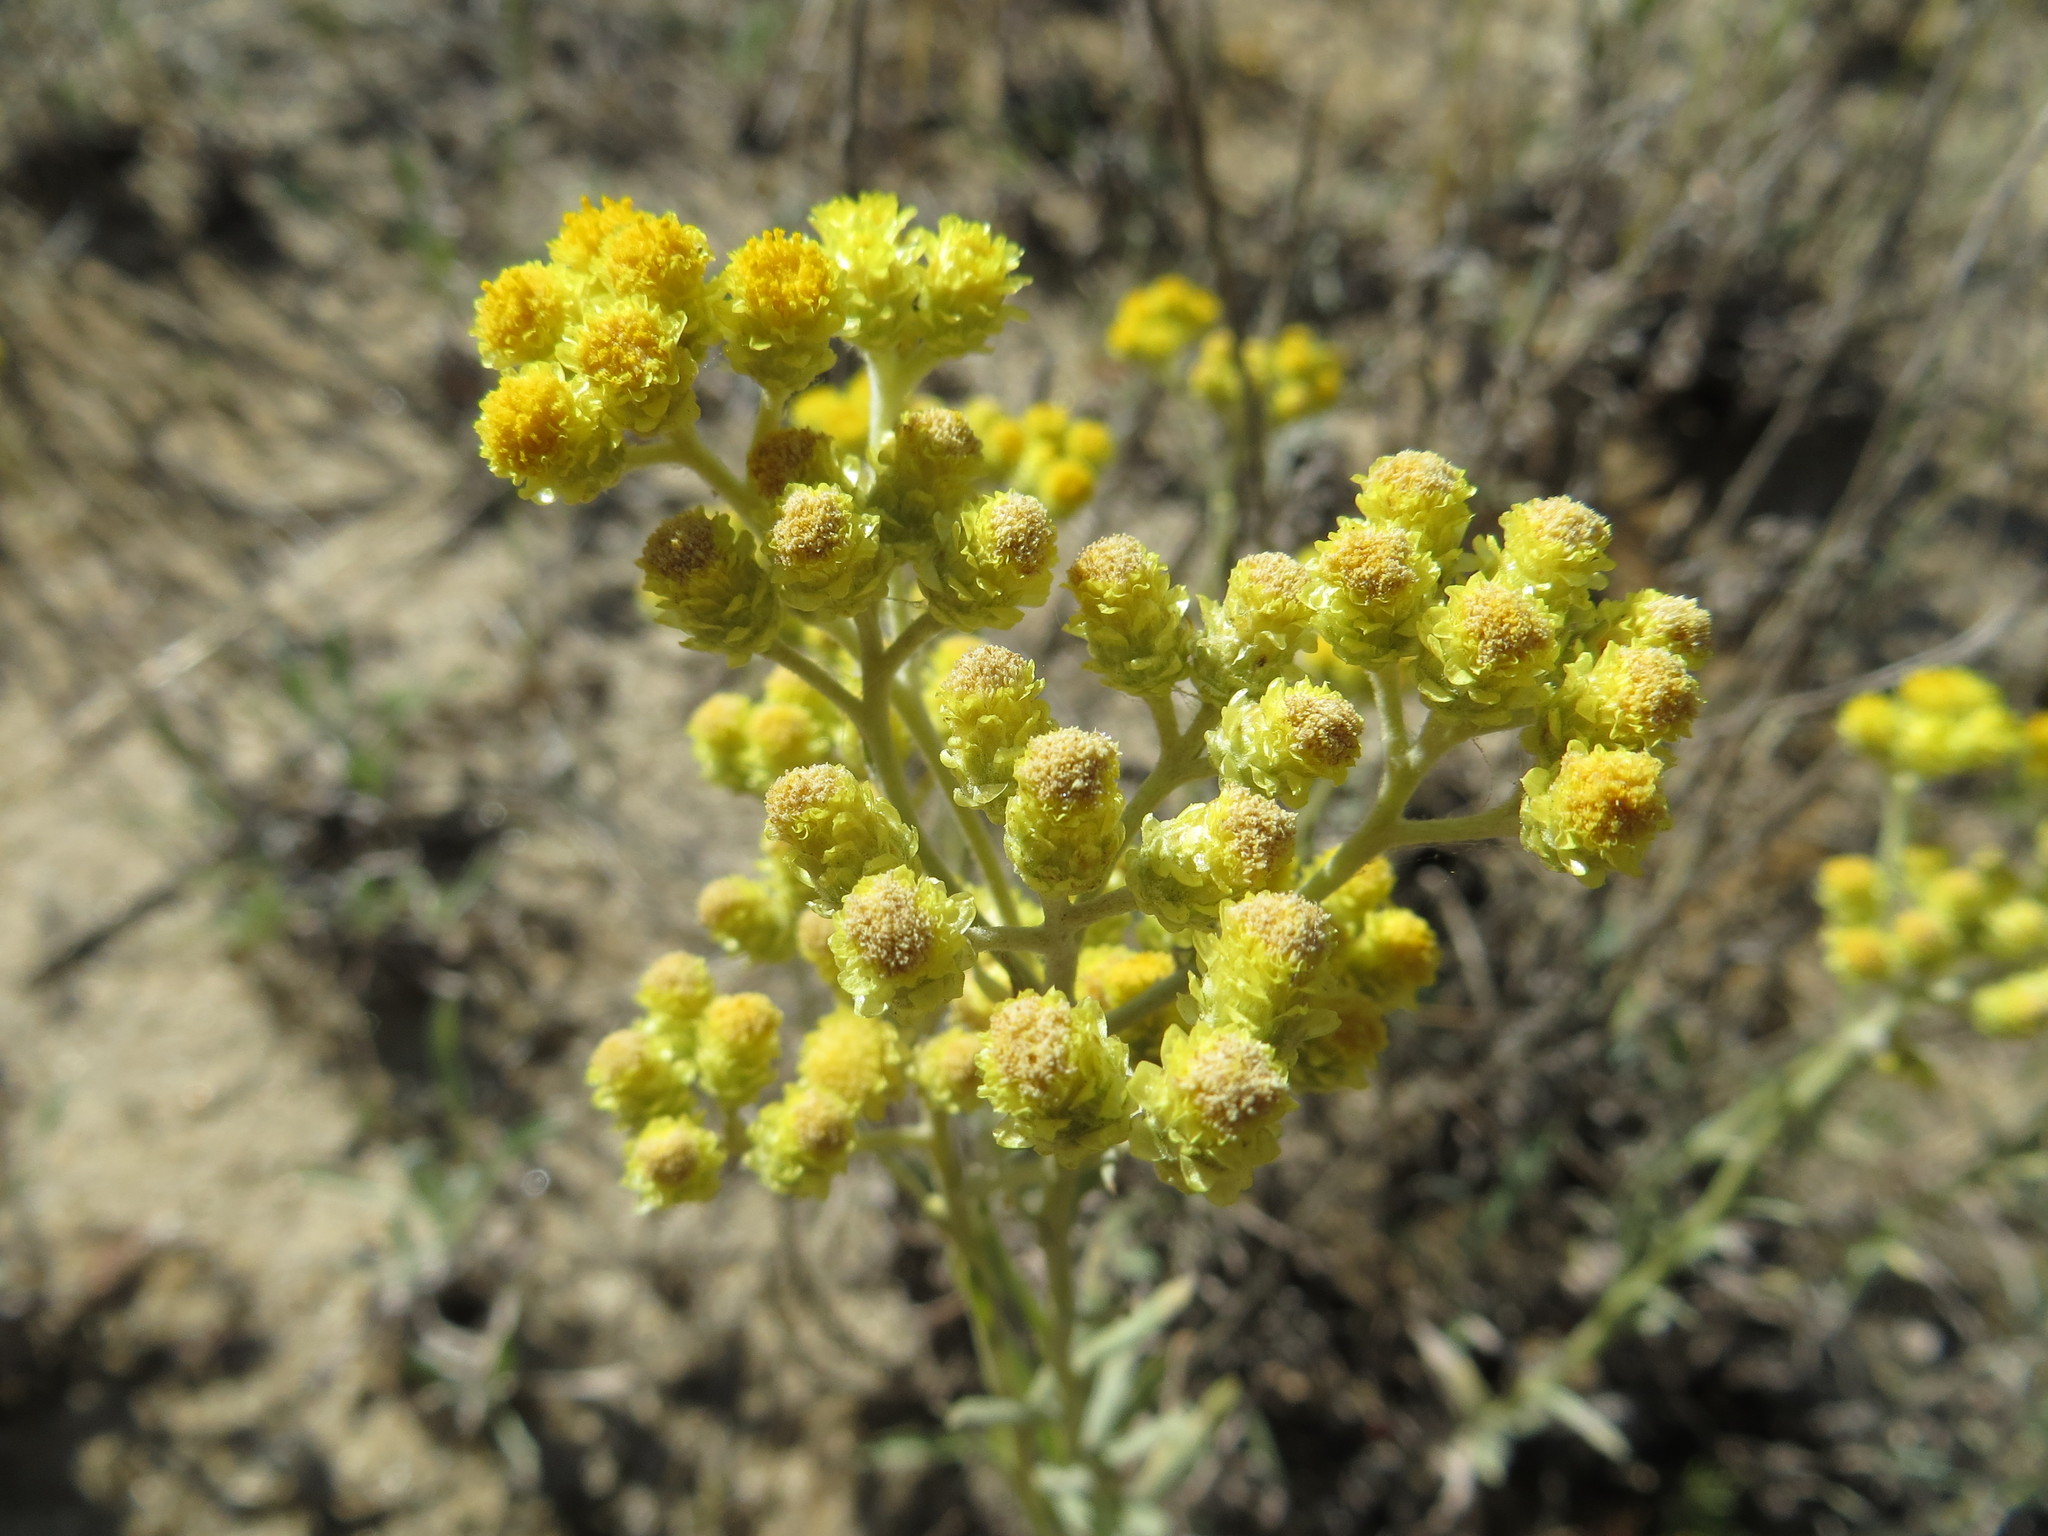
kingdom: Plantae
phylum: Tracheophyta
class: Magnoliopsida
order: Asterales
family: Asteraceae
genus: Helichrysum
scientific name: Helichrysum arenarium
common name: Strawflower
